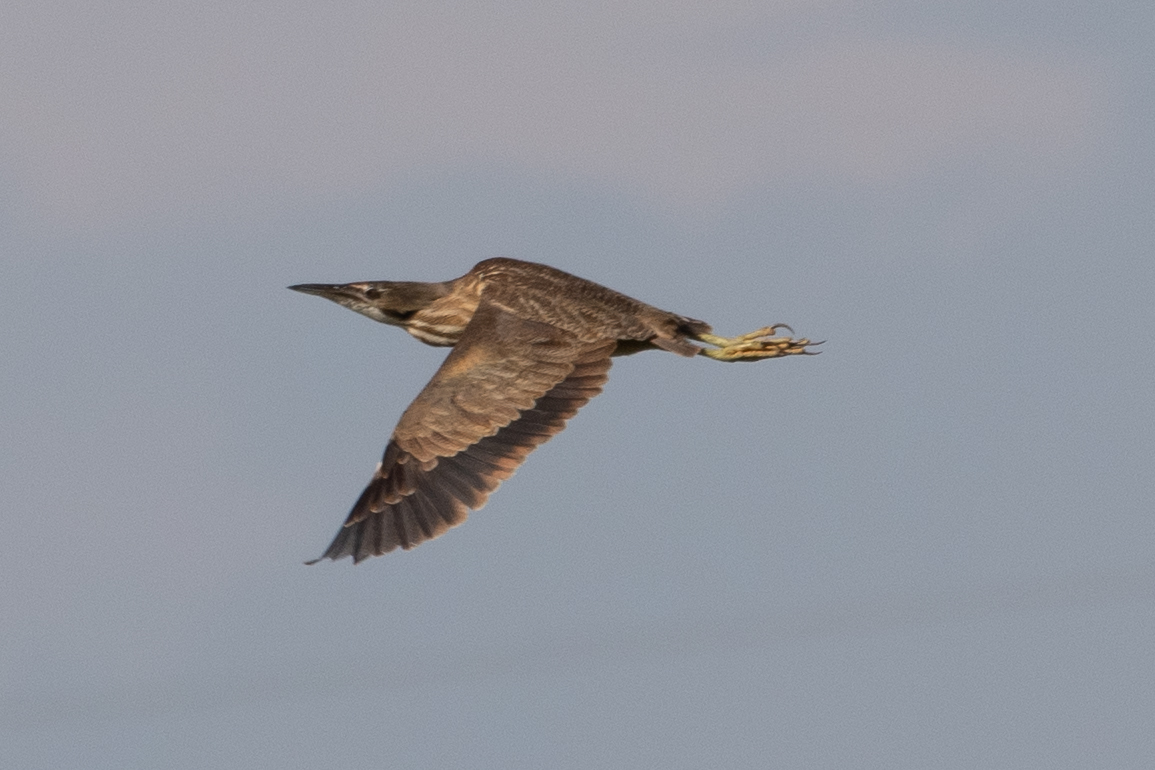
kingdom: Animalia
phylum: Chordata
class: Aves
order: Pelecaniformes
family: Ardeidae
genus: Botaurus
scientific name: Botaurus lentiginosus
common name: American bittern
